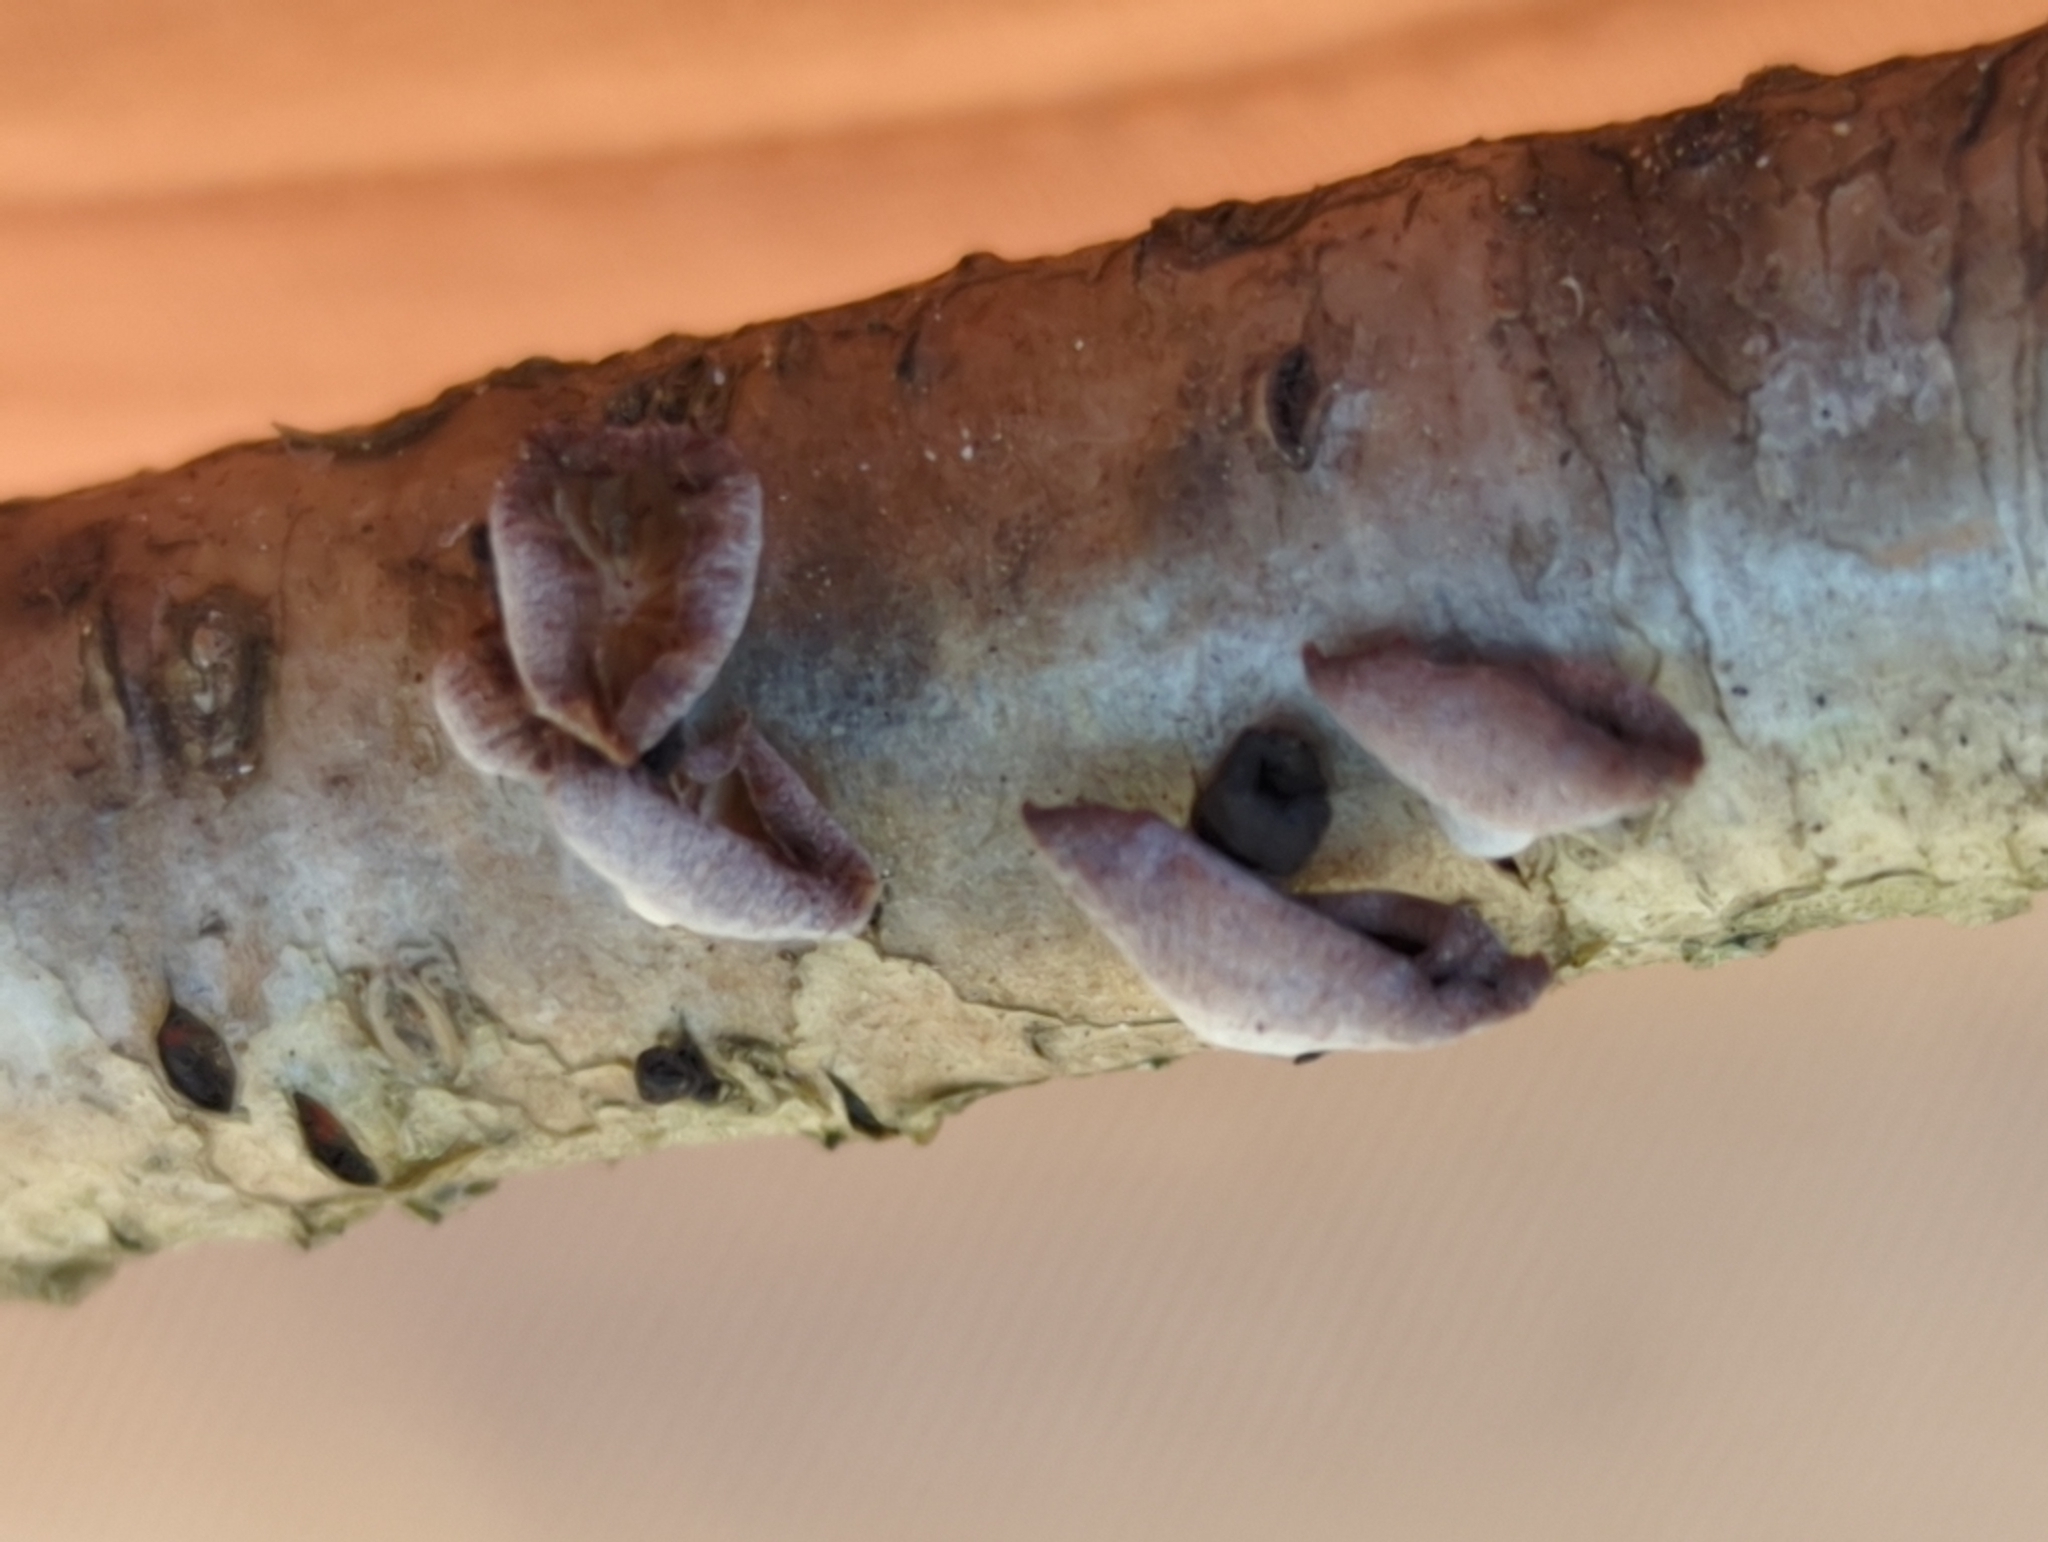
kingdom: Fungi
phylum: Basidiomycota
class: Agaricomycetes
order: Agaricales
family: Mycenaceae
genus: Panellus
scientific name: Panellus ringens
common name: Winter oysterling
